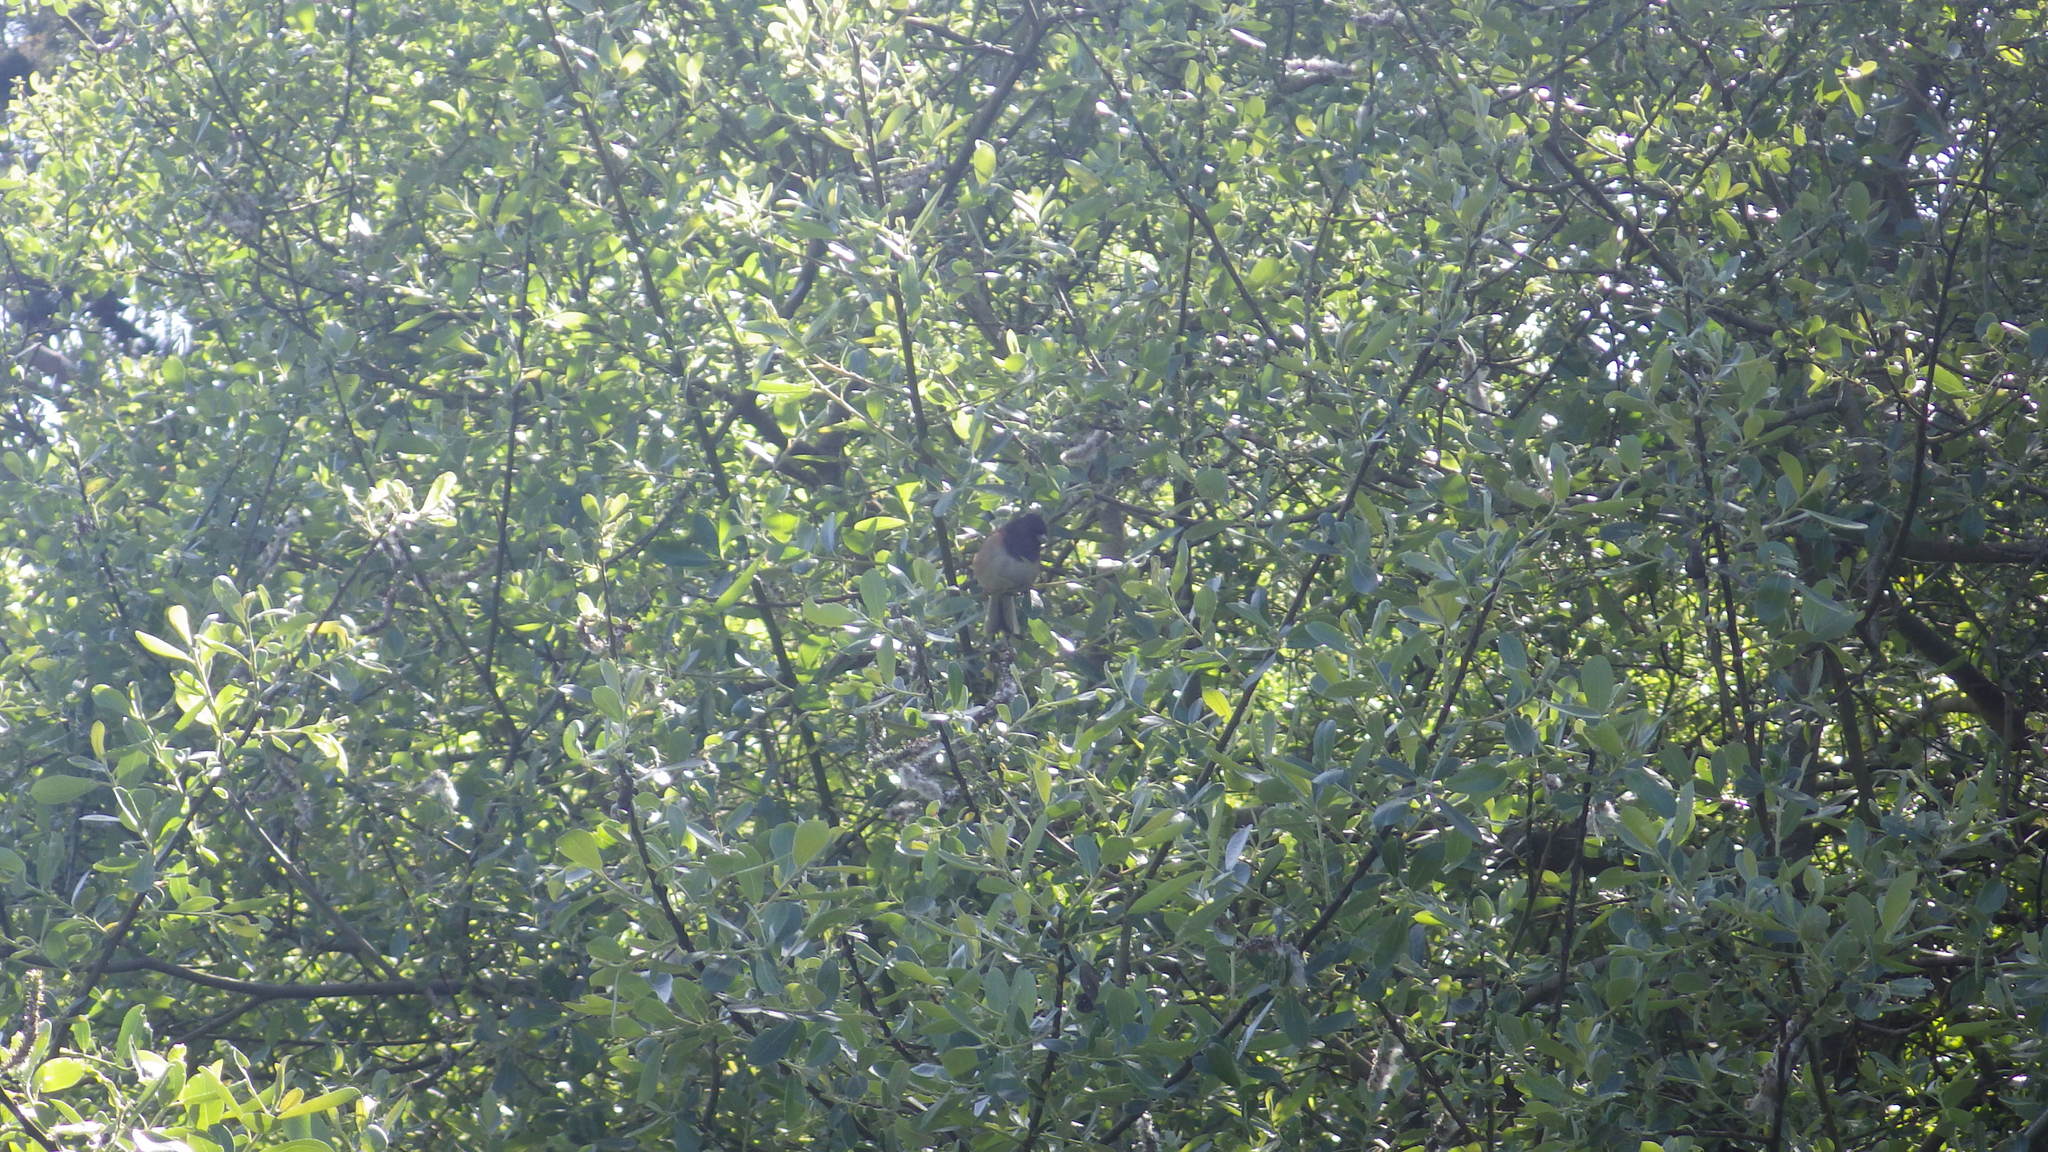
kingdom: Animalia
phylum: Chordata
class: Aves
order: Passeriformes
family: Passerellidae
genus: Junco
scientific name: Junco hyemalis
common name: Dark-eyed junco
